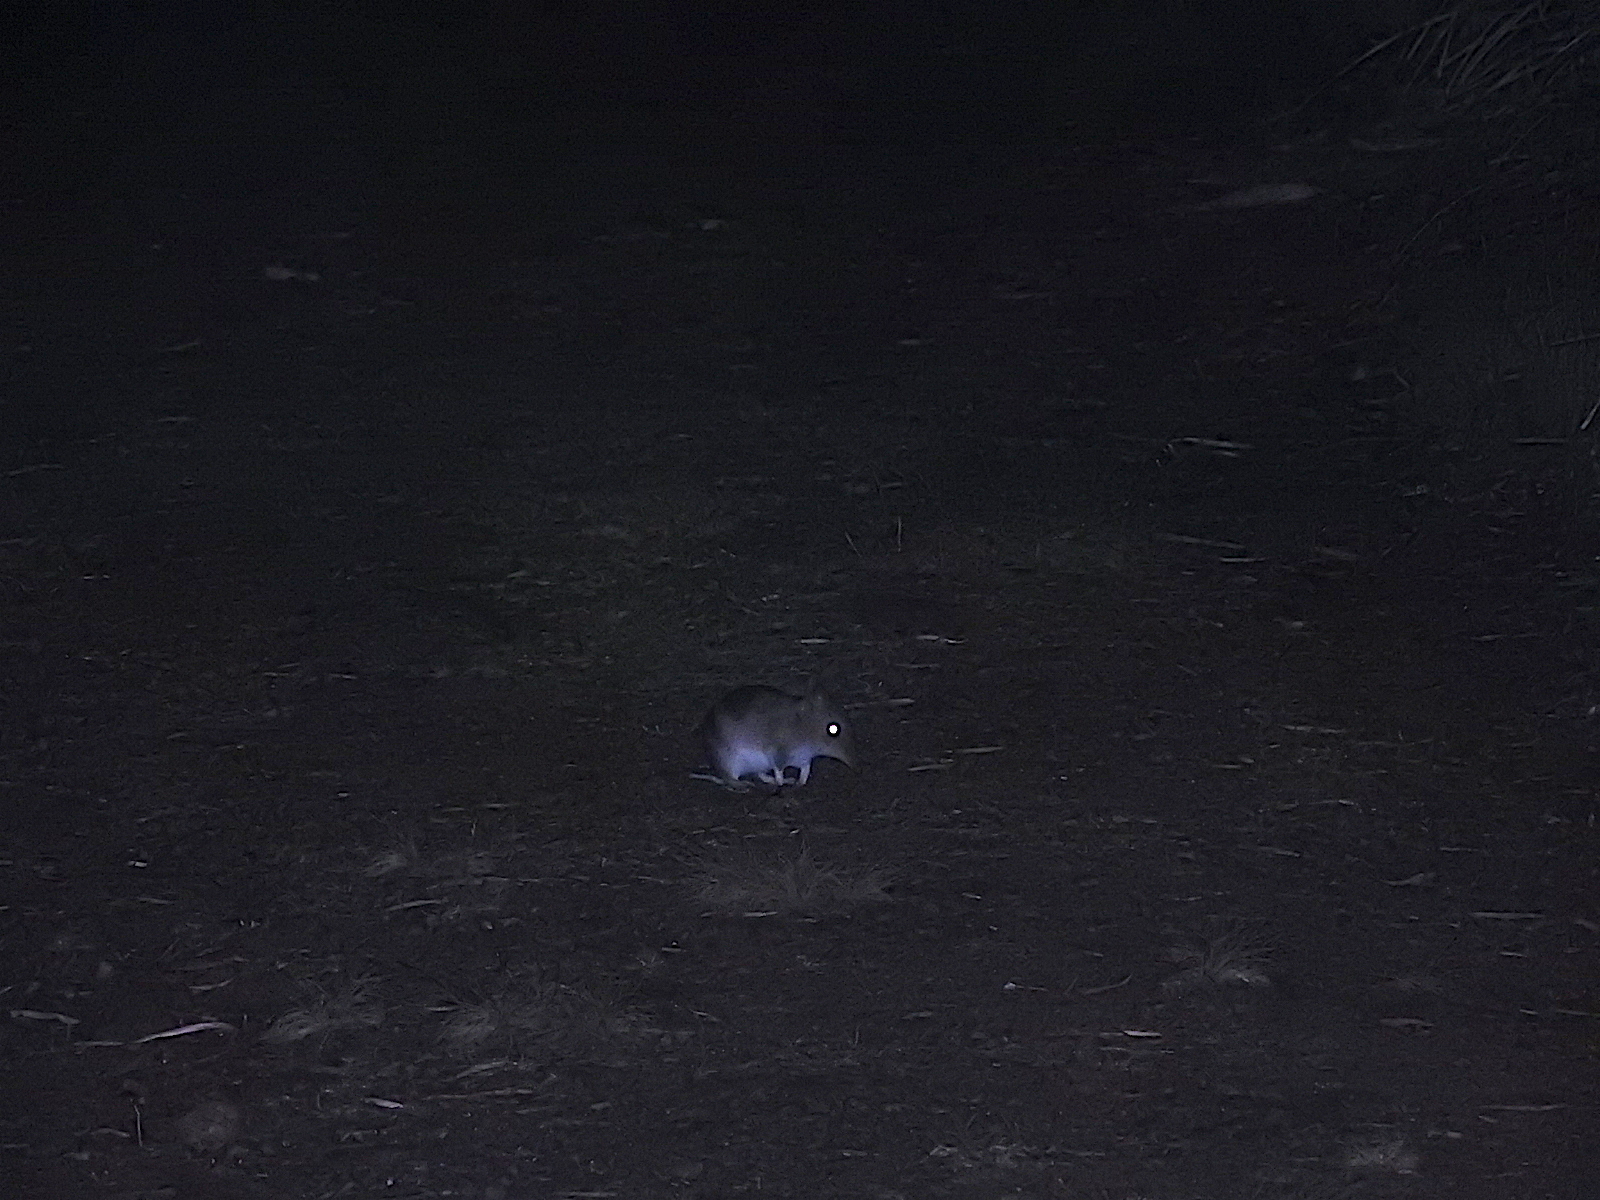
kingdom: Animalia
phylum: Chordata
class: Mammalia
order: Peramelemorphia
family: Peramelidae
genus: Perameles
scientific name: Perameles gunnii
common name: Eastern barred bandicoot
